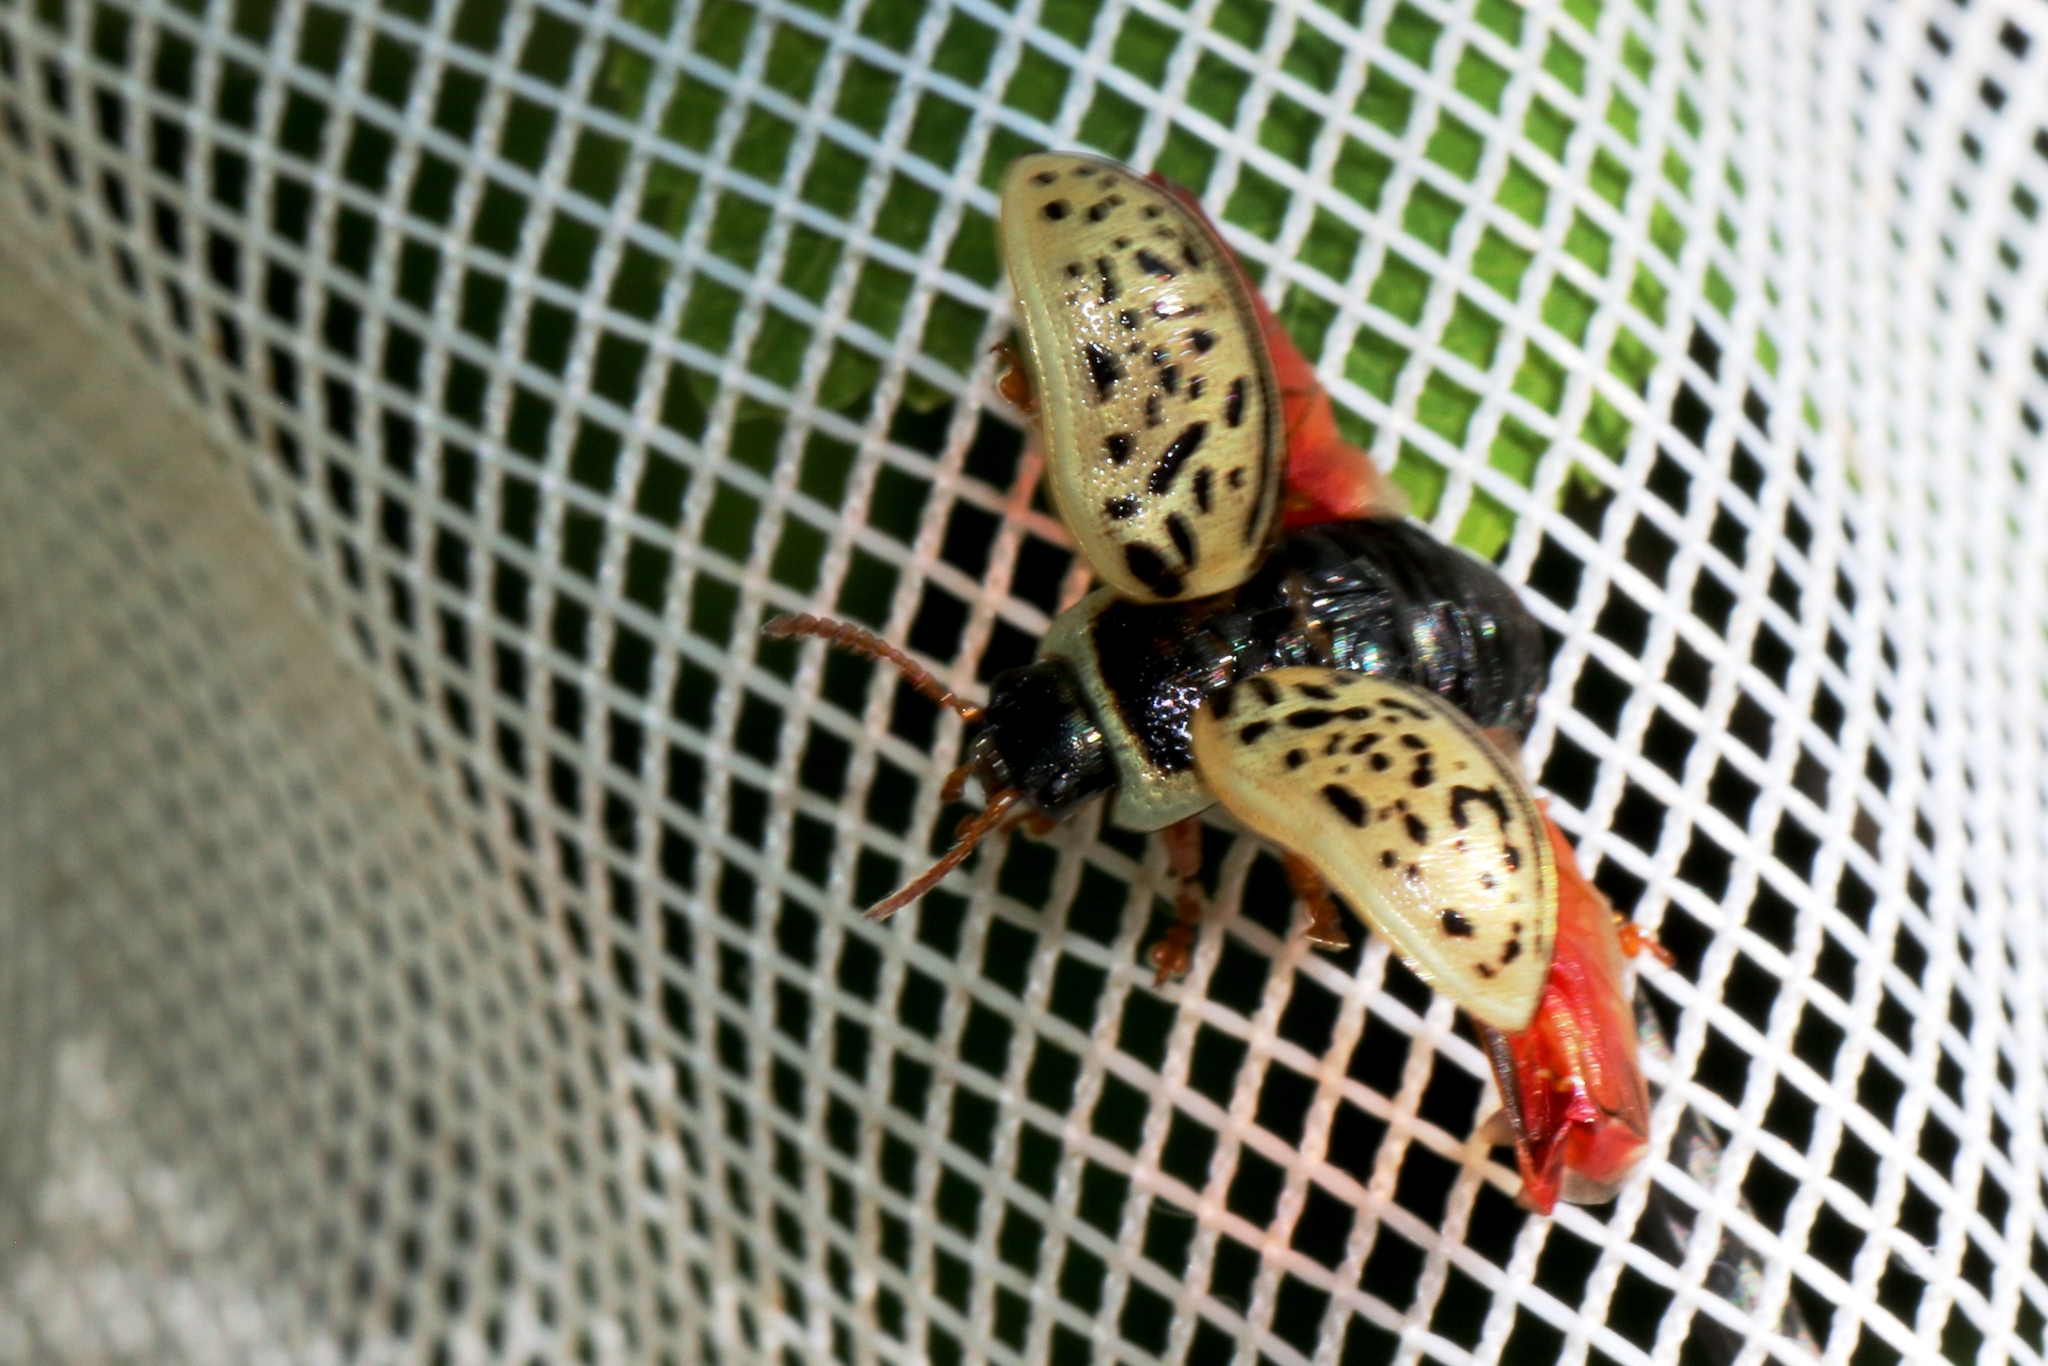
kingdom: Animalia
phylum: Arthropoda
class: Insecta
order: Coleoptera
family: Chrysomelidae
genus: Calligrapha
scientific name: Calligrapha multipunctata
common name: Common willow calligrapher beetle
